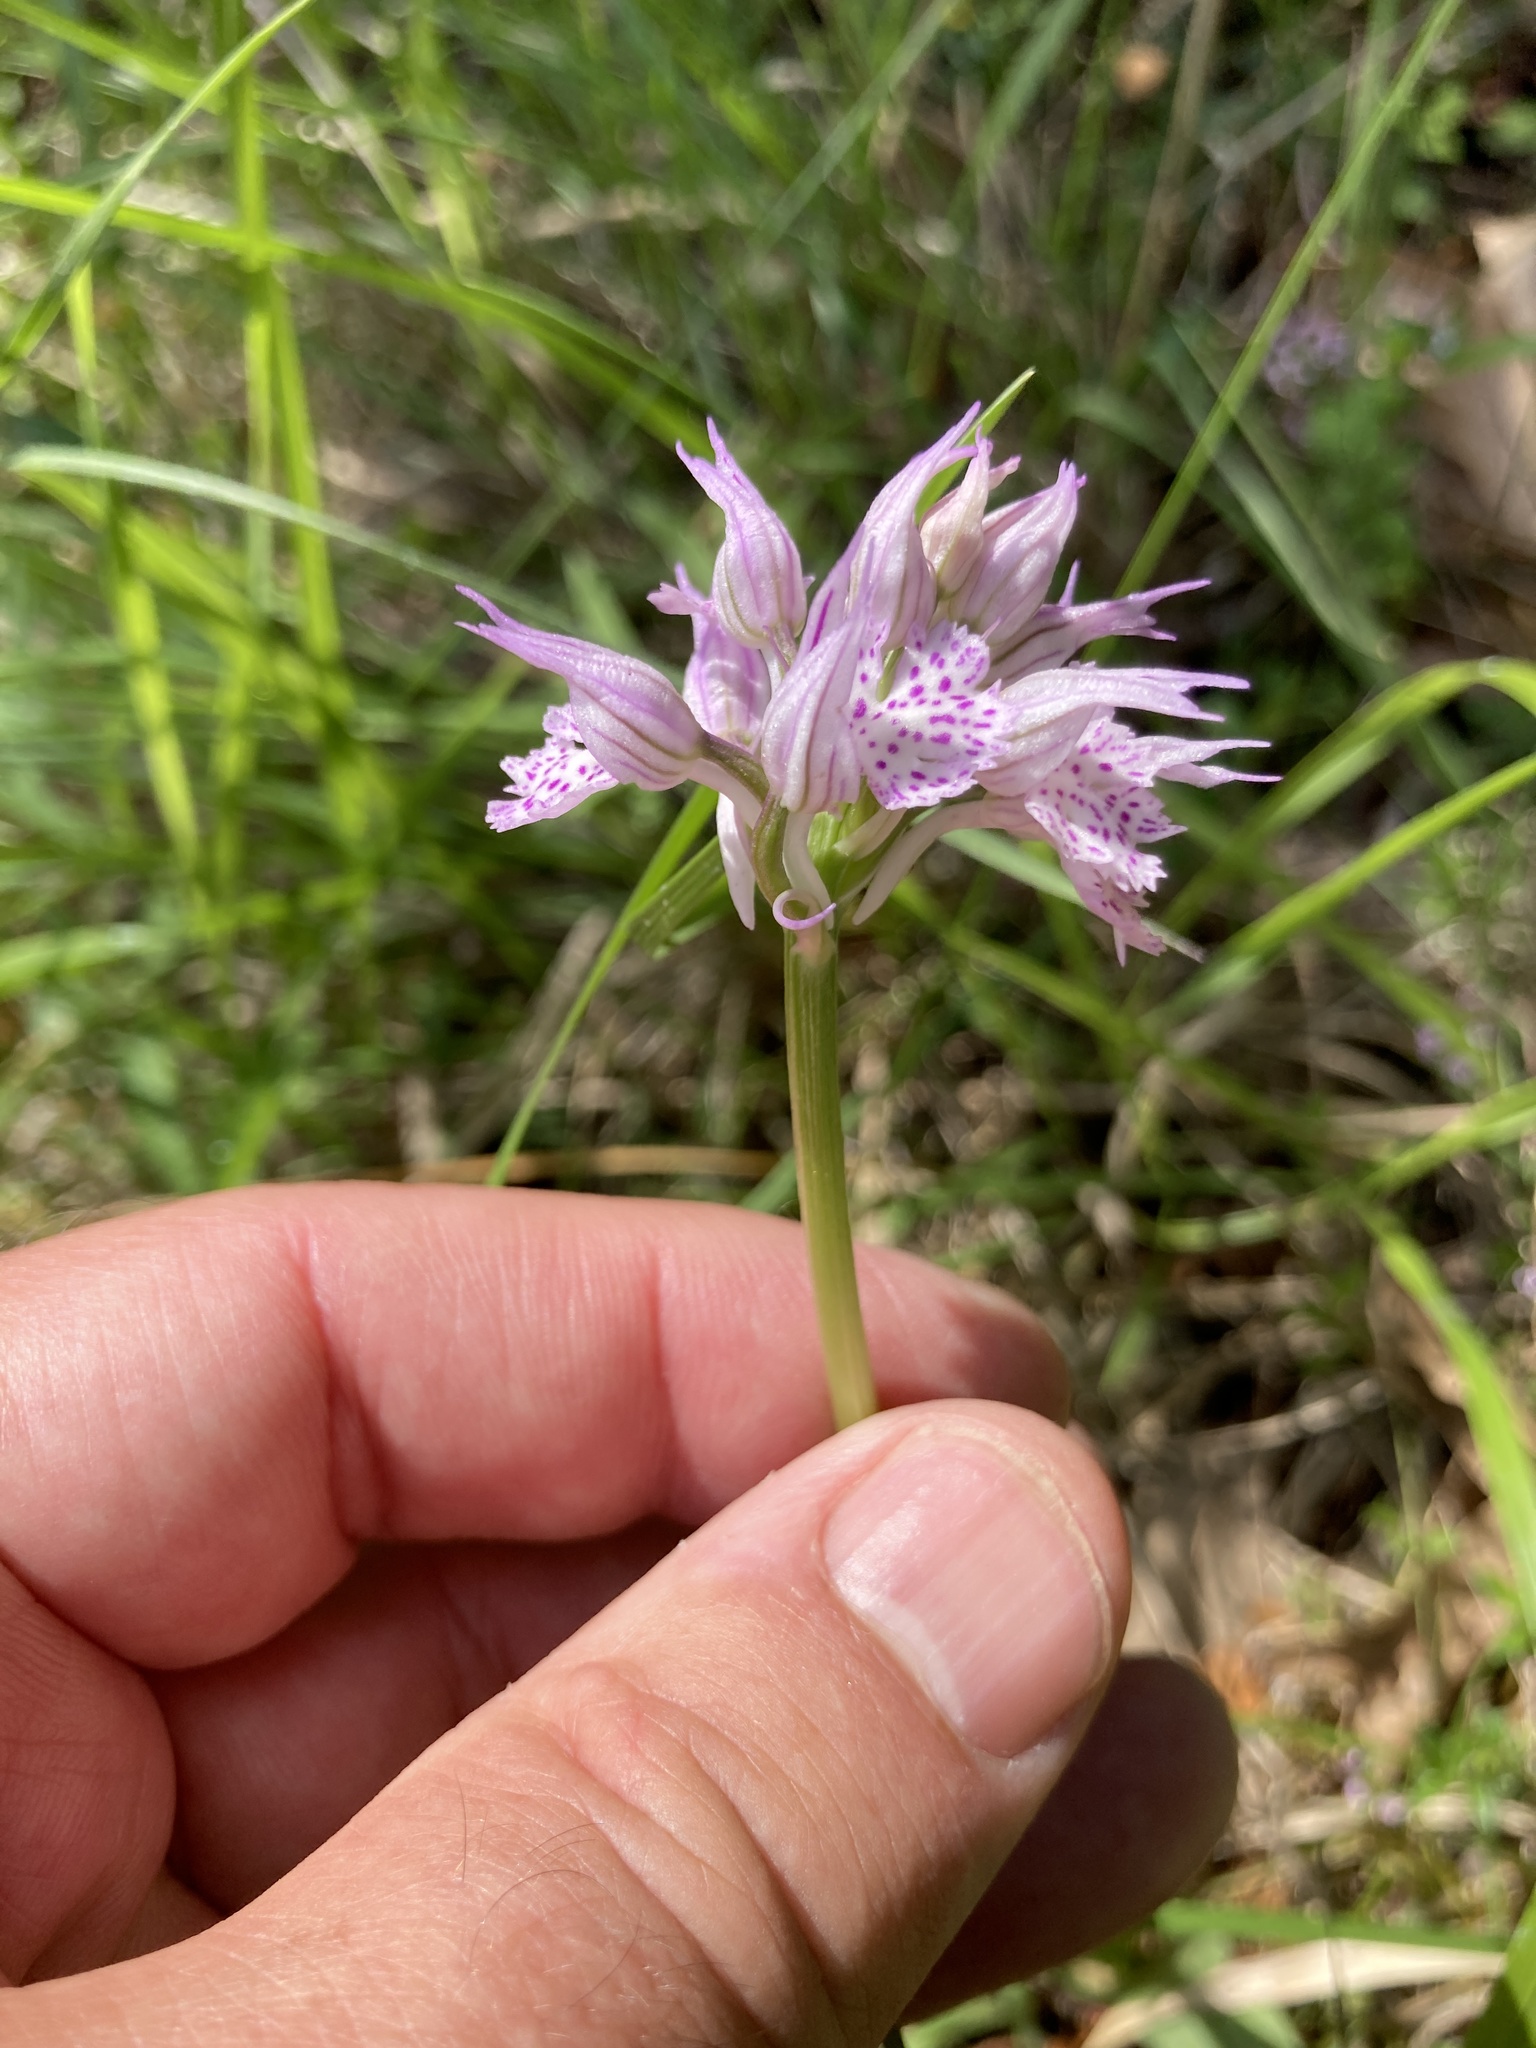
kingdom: Plantae
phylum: Tracheophyta
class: Liliopsida
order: Asparagales
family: Orchidaceae
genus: Neotinea
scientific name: Neotinea tridentata
